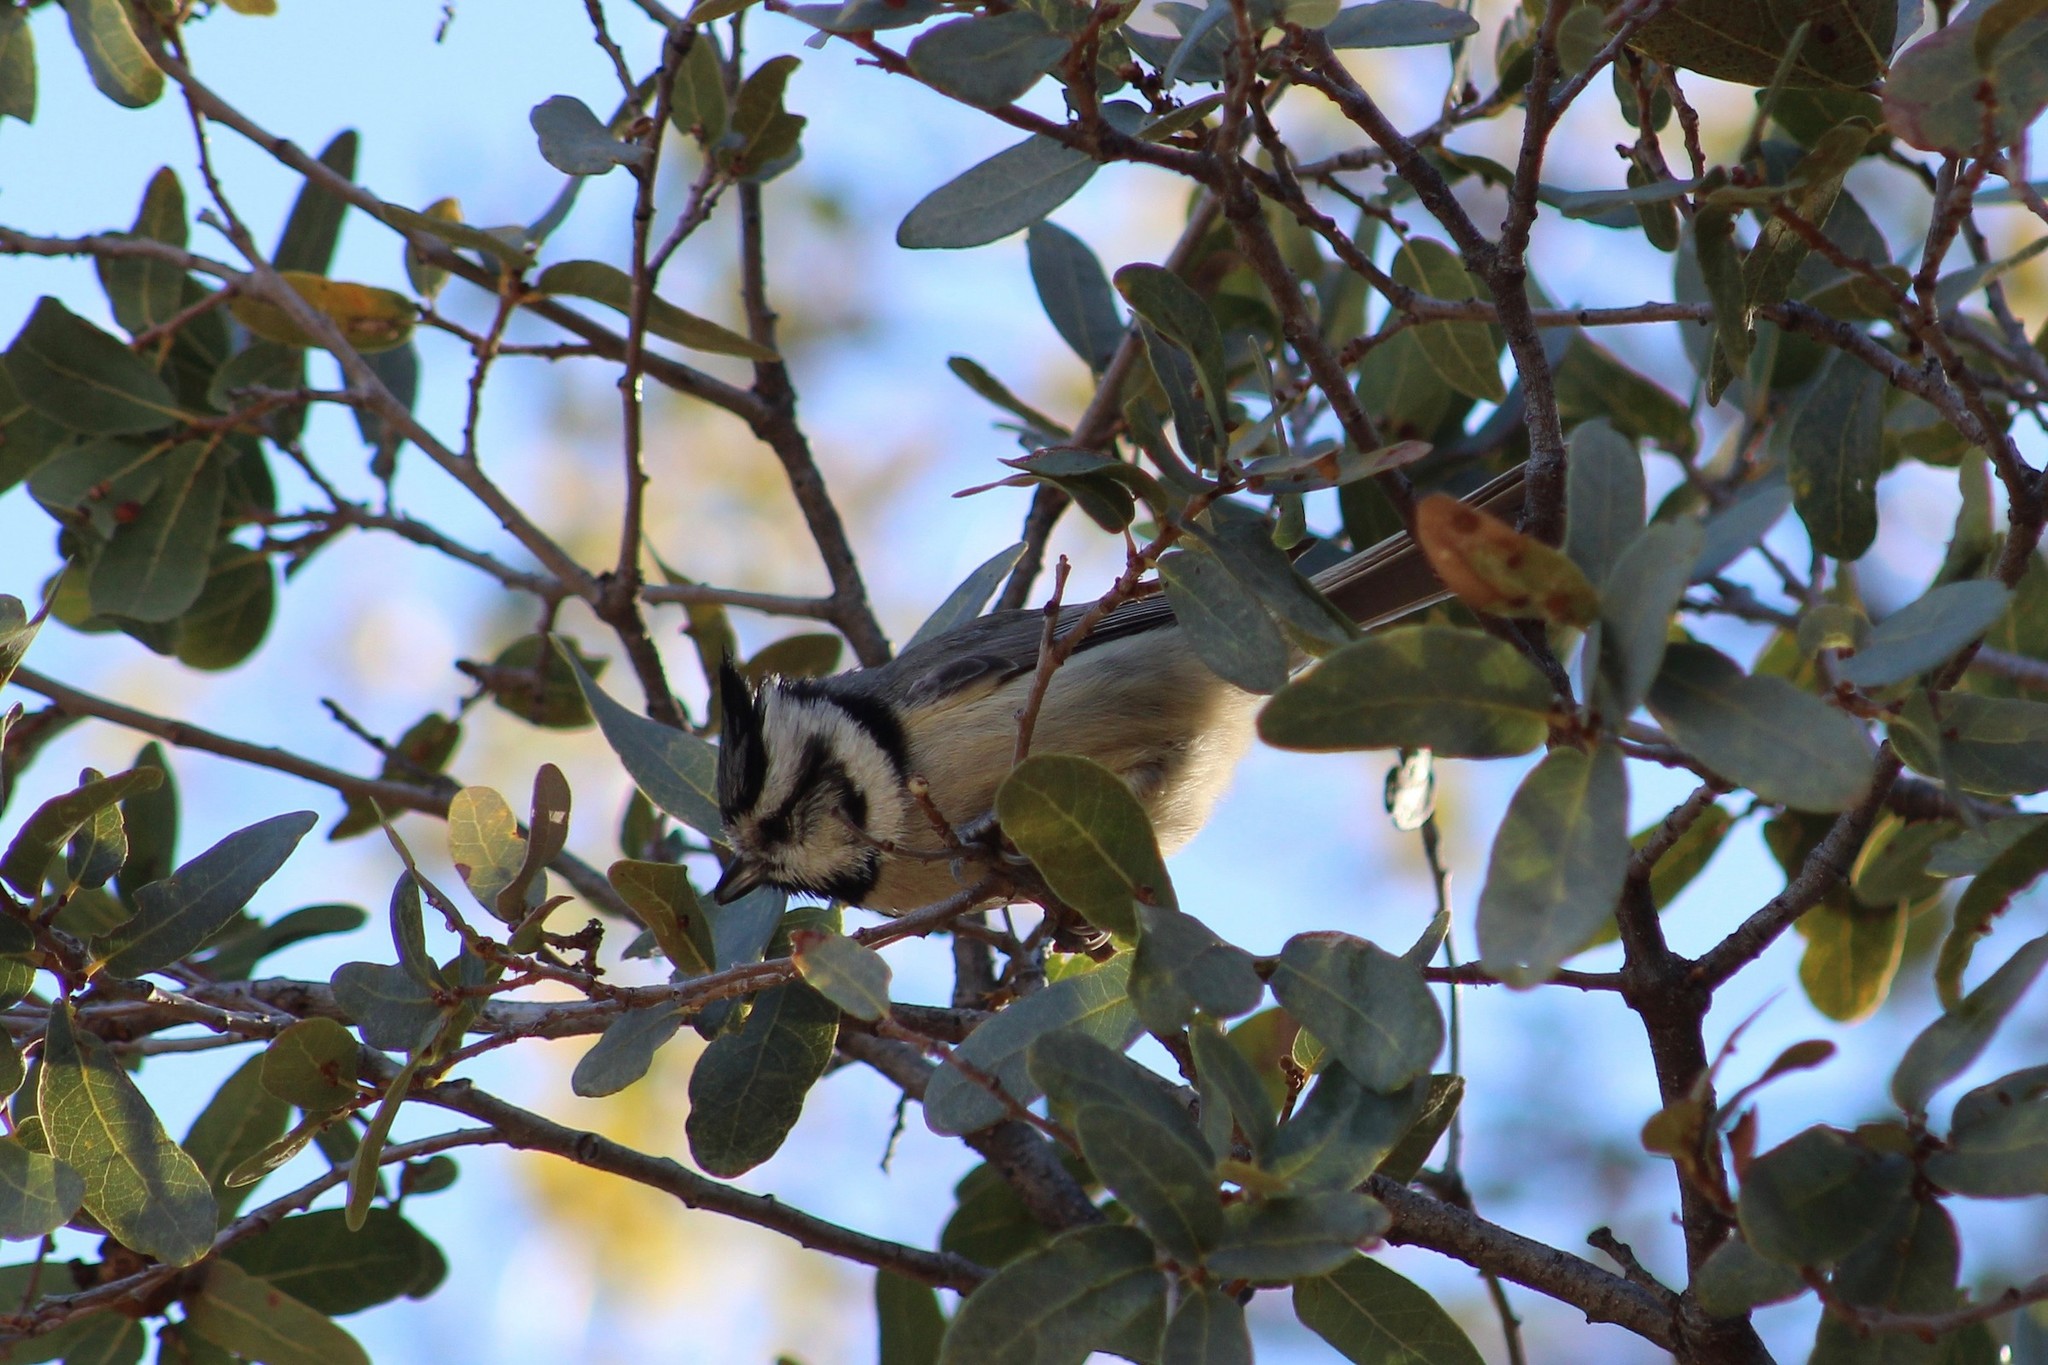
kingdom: Animalia
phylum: Chordata
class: Aves
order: Passeriformes
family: Paridae
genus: Baeolophus
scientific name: Baeolophus wollweberi
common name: Bridled titmouse
